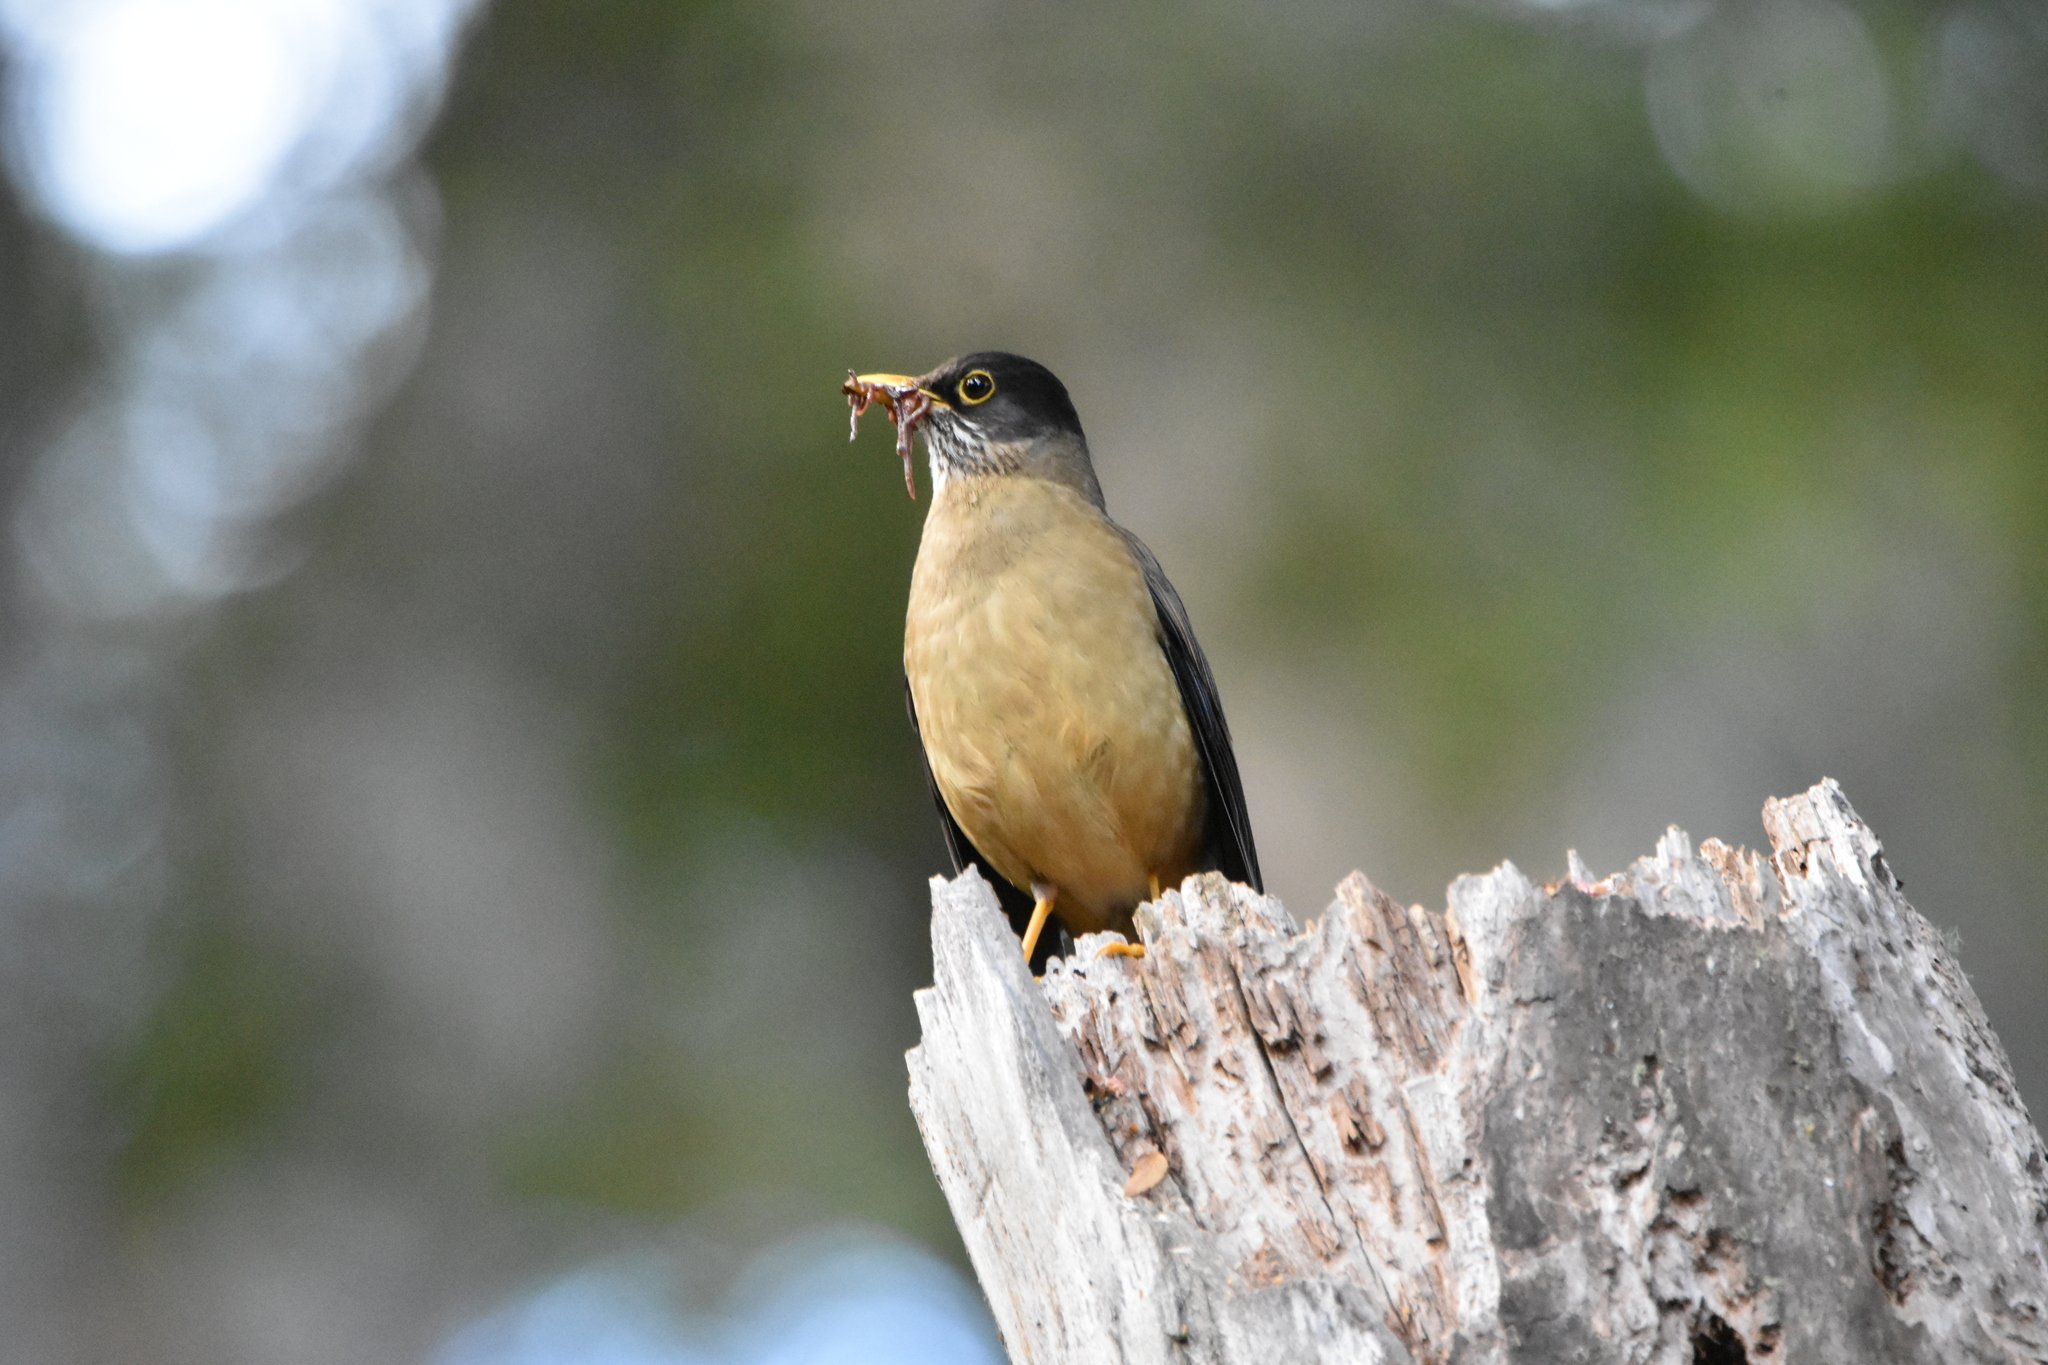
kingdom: Animalia
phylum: Chordata
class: Aves
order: Passeriformes
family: Turdidae
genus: Turdus
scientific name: Turdus falcklandii
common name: Austral thrush
